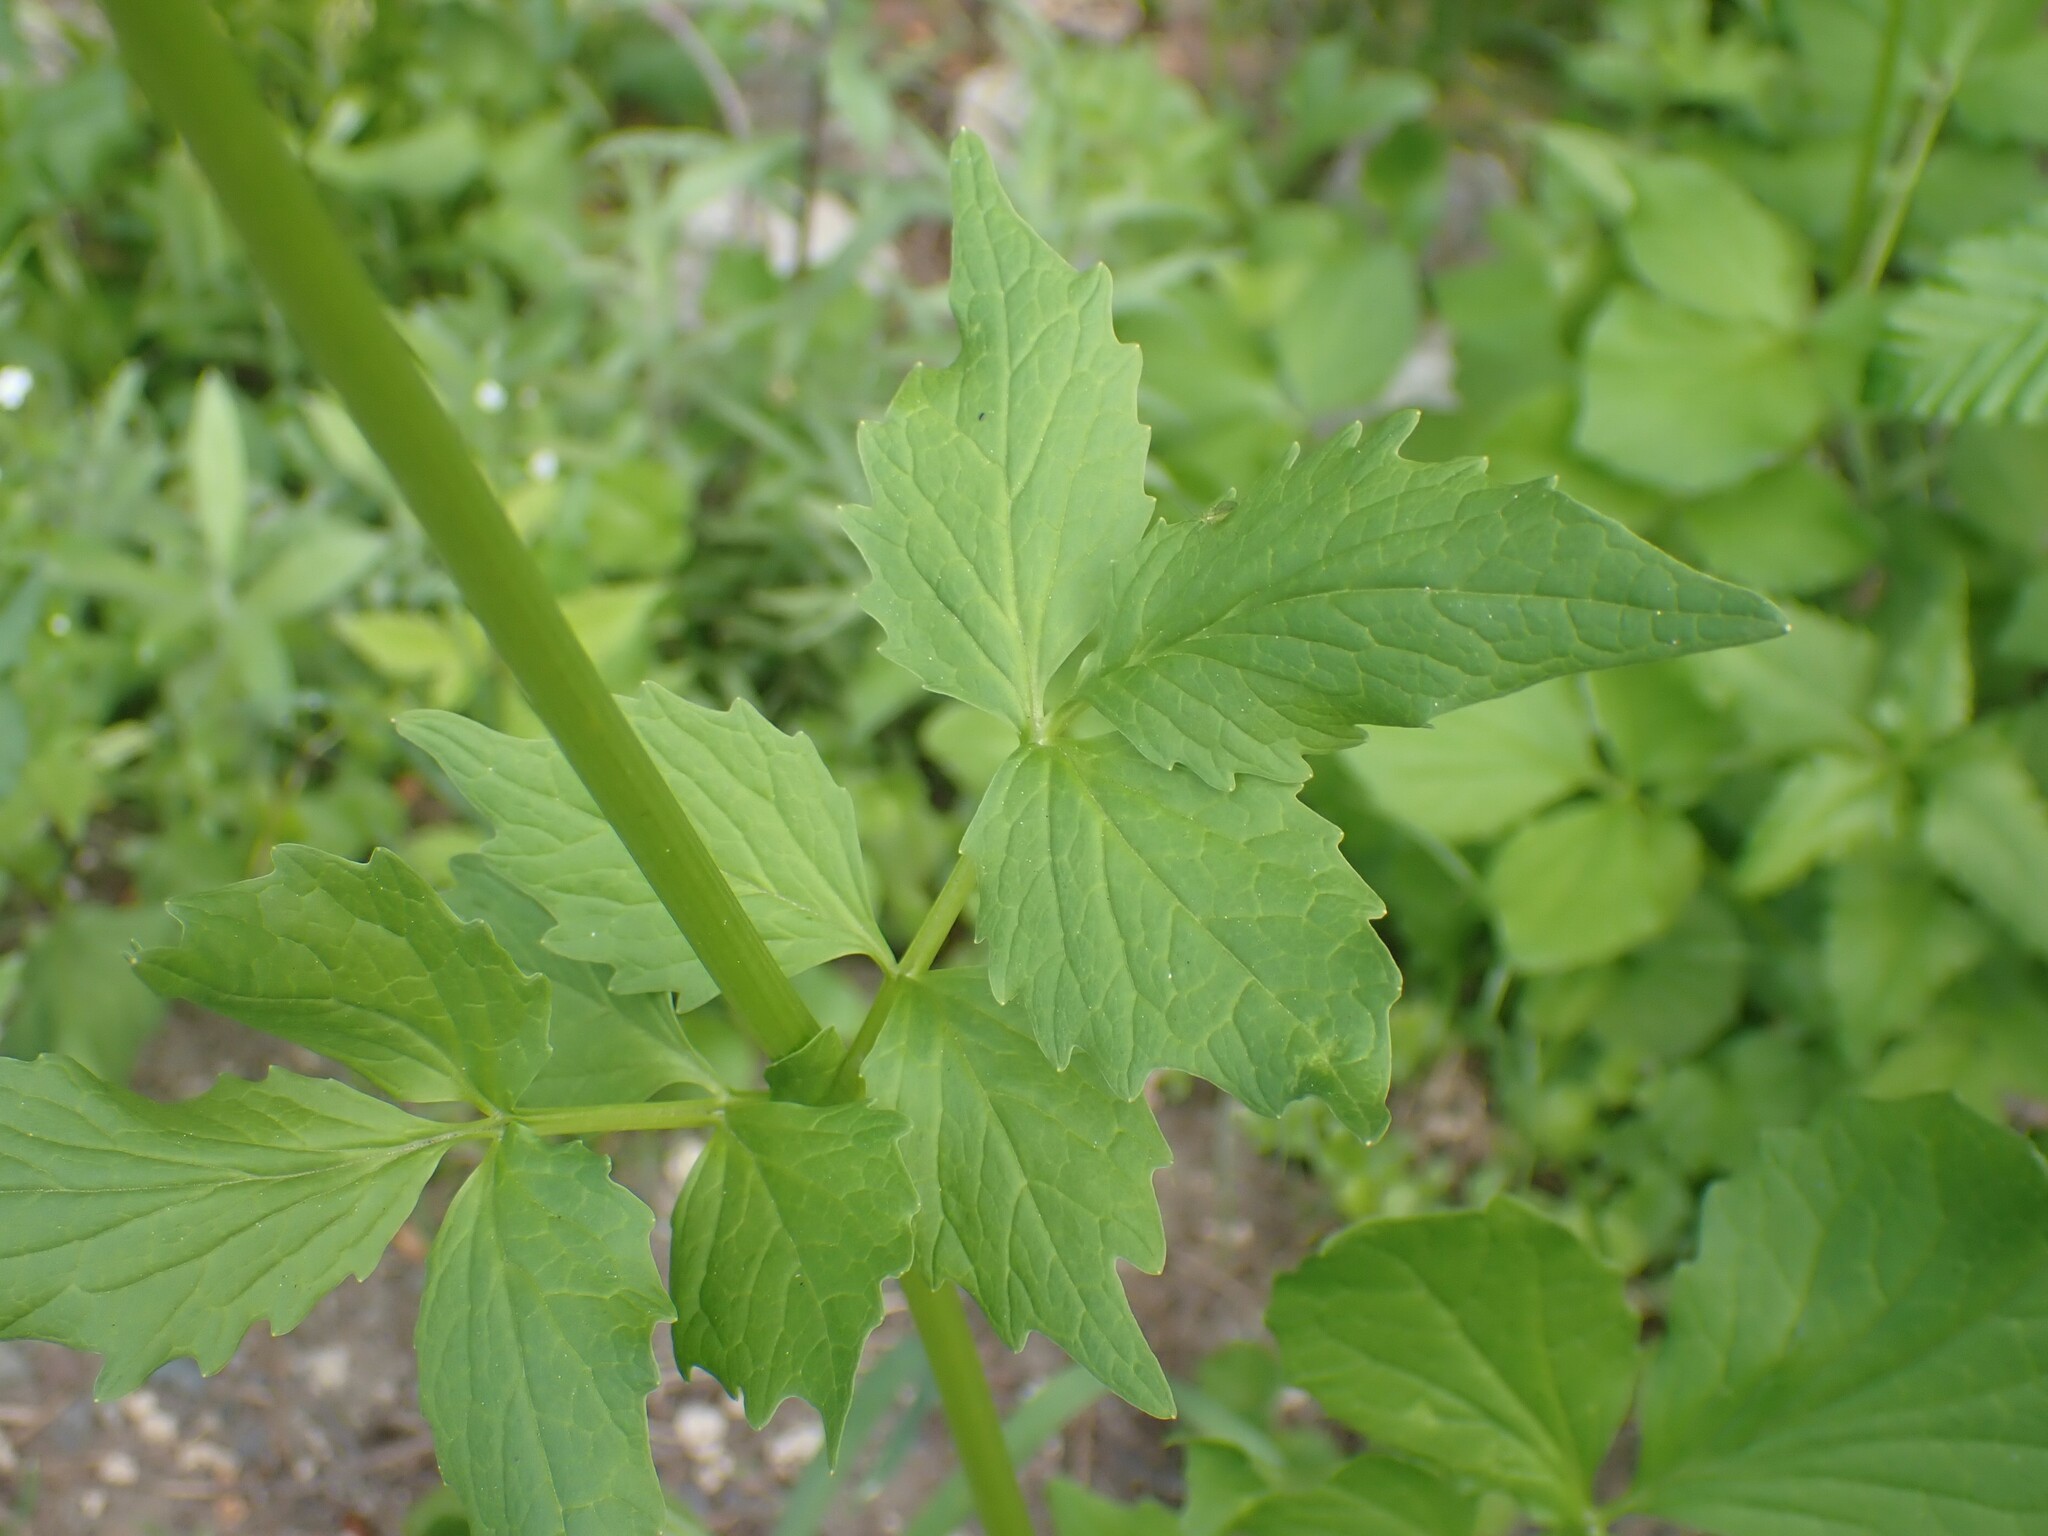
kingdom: Plantae
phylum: Tracheophyta
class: Magnoliopsida
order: Dipsacales
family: Caprifoliaceae
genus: Valeriana
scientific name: Valeriana sitchensis
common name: Pacific valerian
